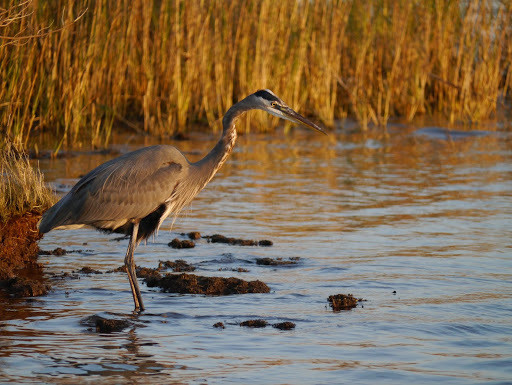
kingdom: Animalia
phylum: Chordata
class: Aves
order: Pelecaniformes
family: Ardeidae
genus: Ardea
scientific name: Ardea herodias
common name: Great blue heron
